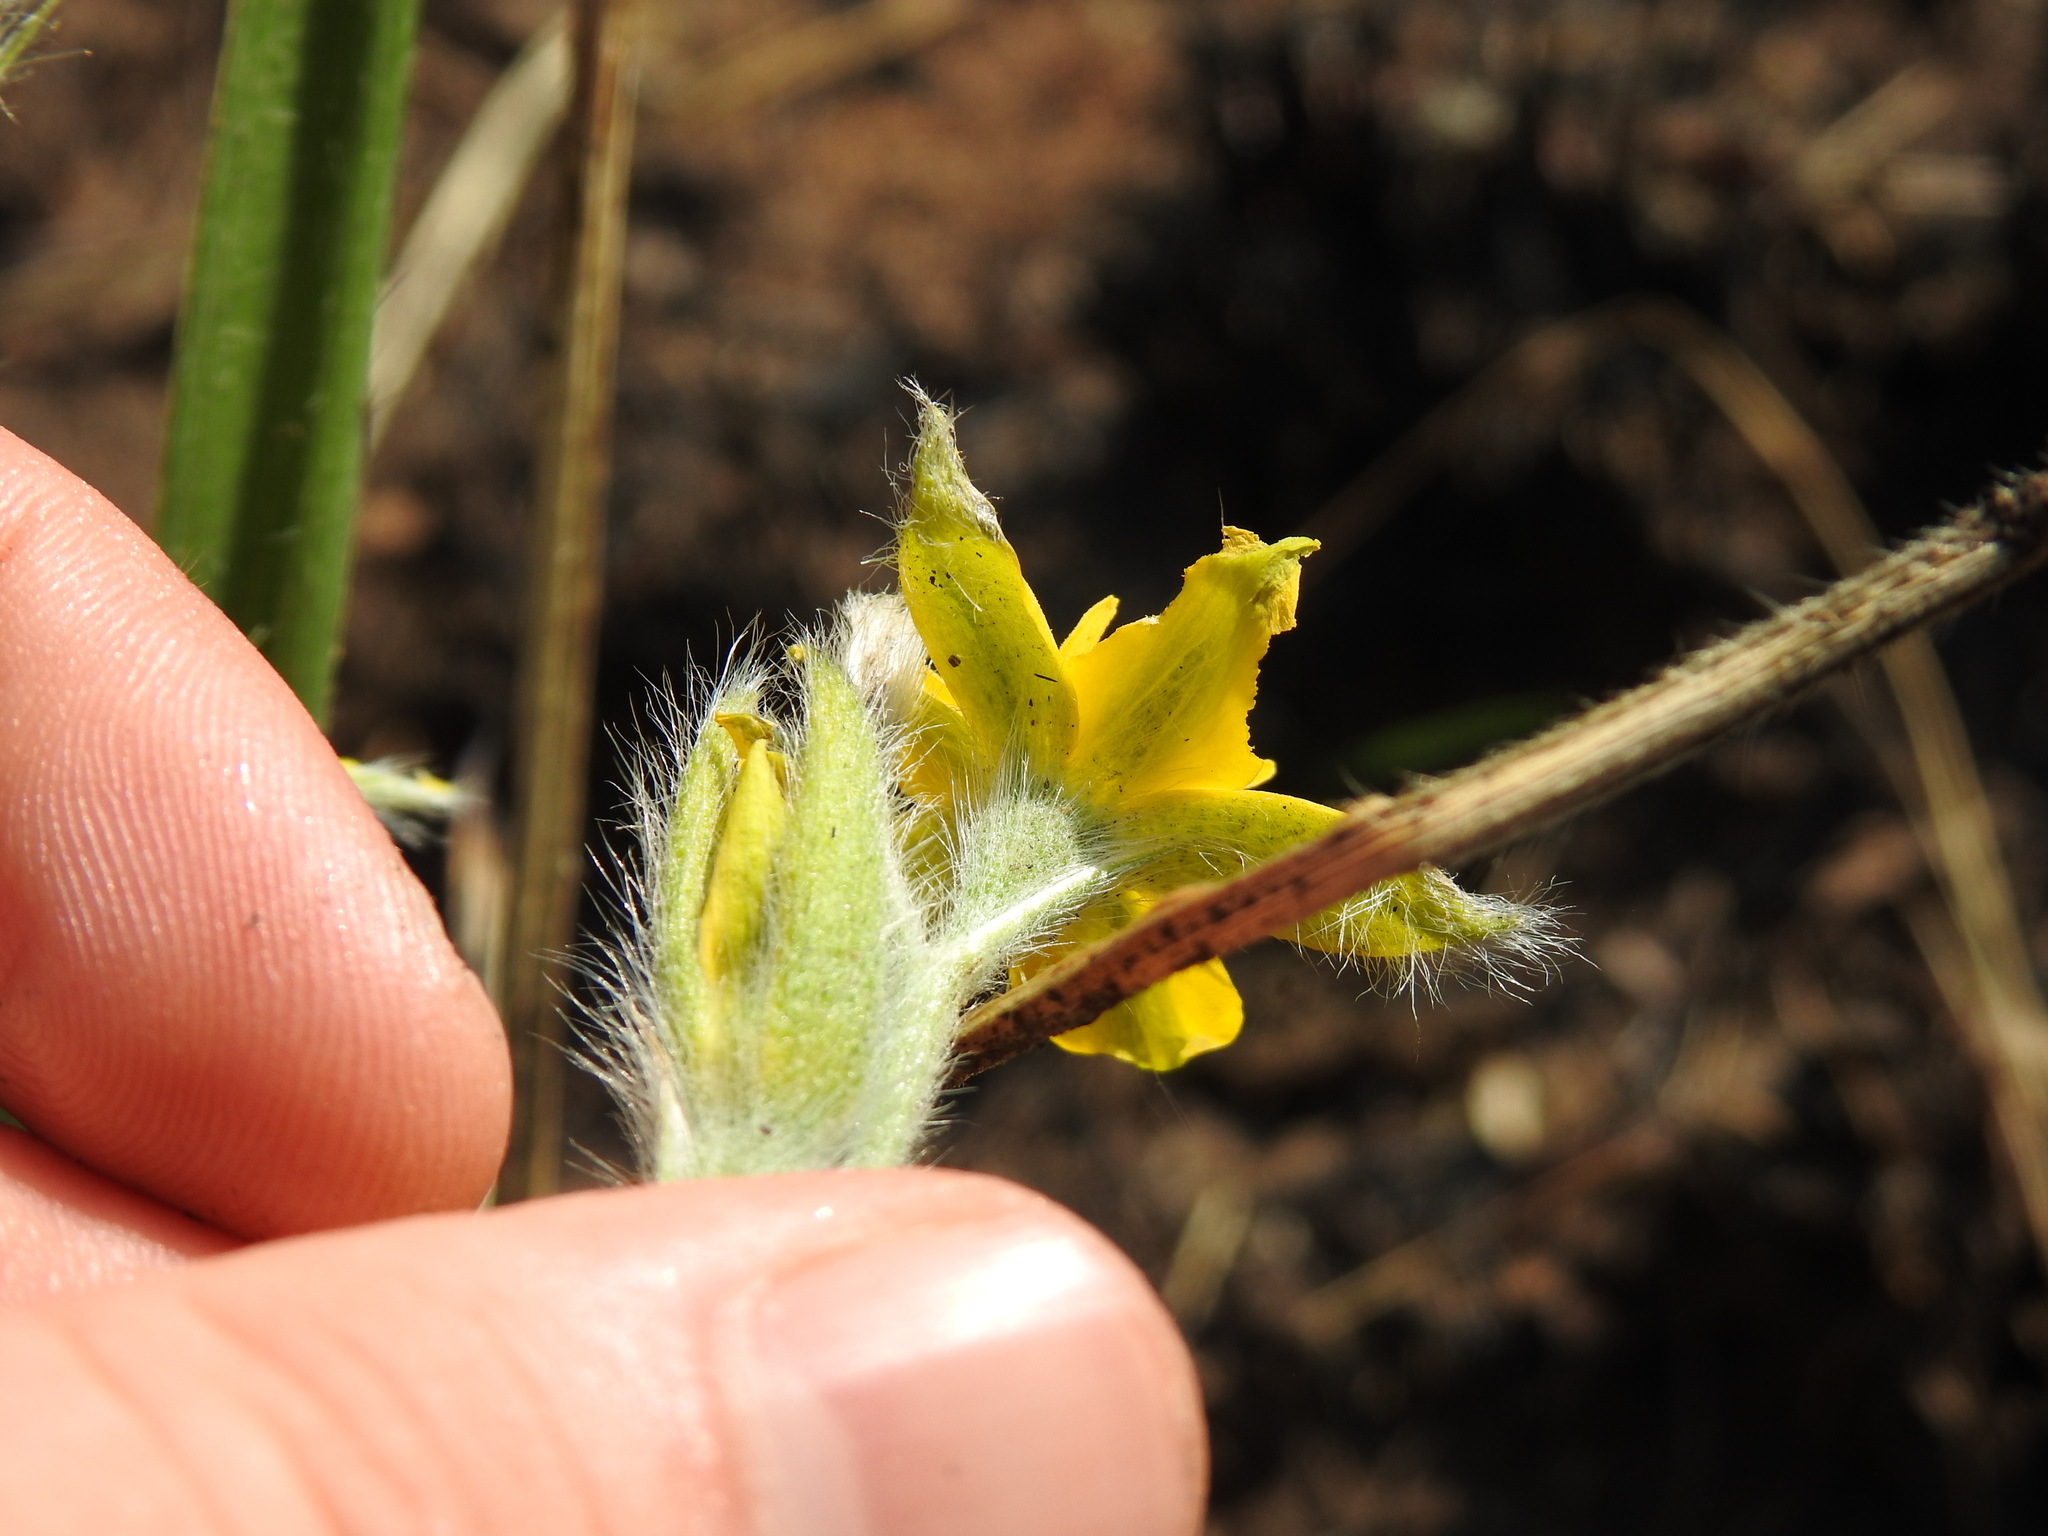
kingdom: Plantae
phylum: Tracheophyta
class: Liliopsida
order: Asparagales
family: Hypoxidaceae
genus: Hypoxis
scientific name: Hypoxis acuminata
